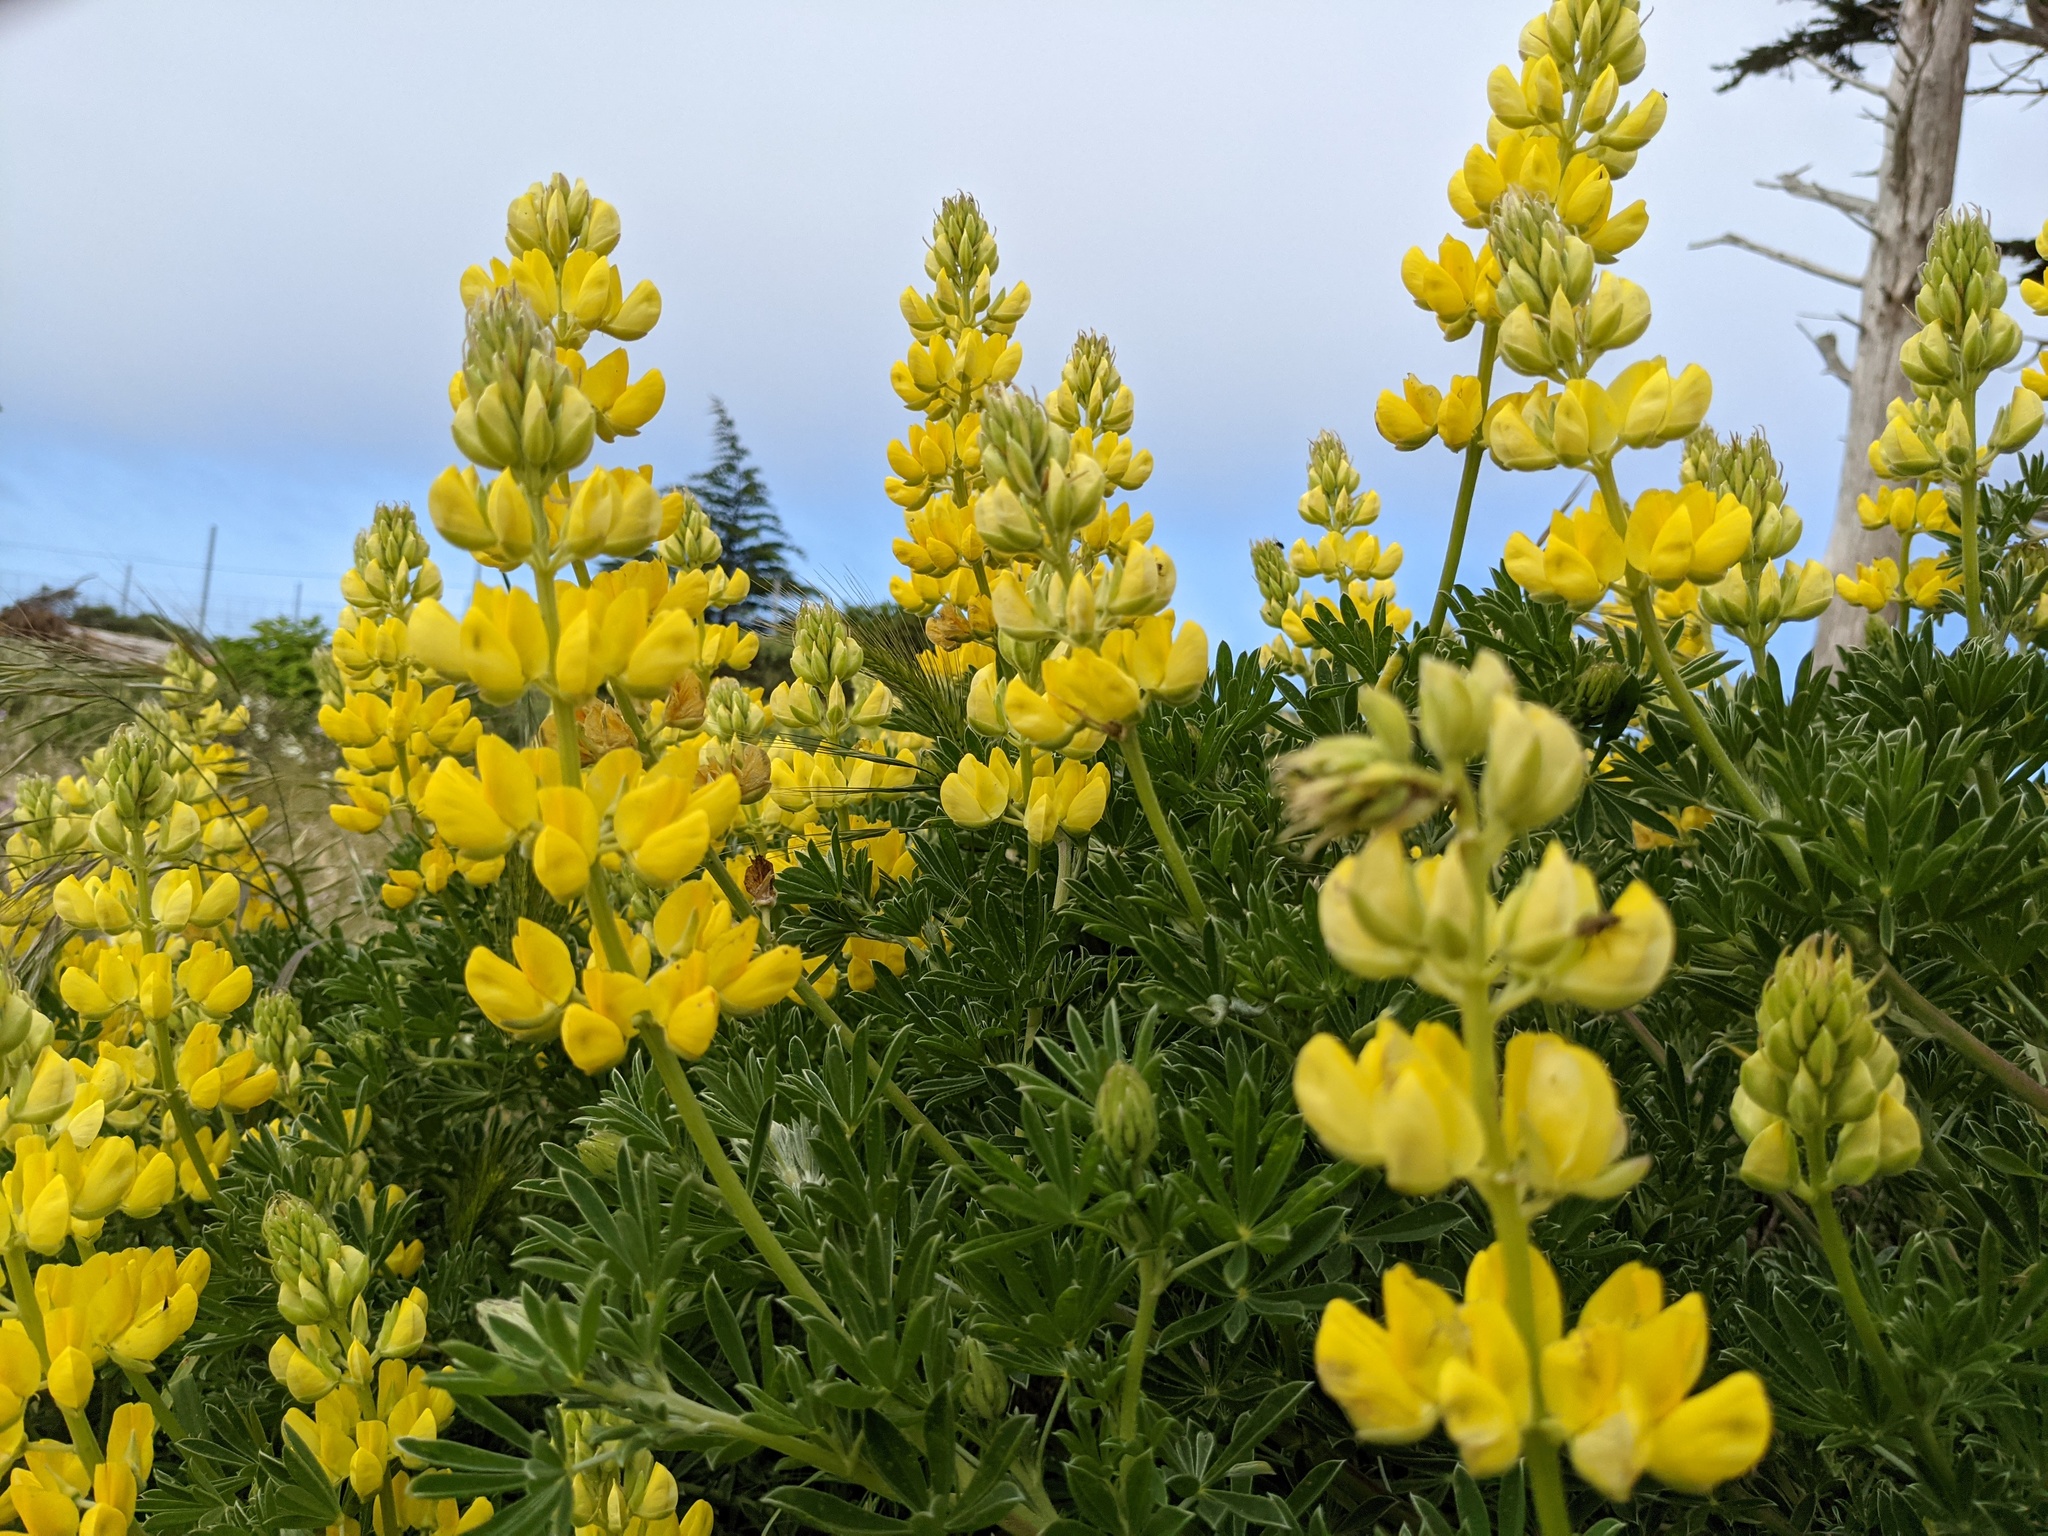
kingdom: Plantae
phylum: Tracheophyta
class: Magnoliopsida
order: Fabales
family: Fabaceae
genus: Lupinus
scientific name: Lupinus arboreus
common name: Yellow bush lupine
